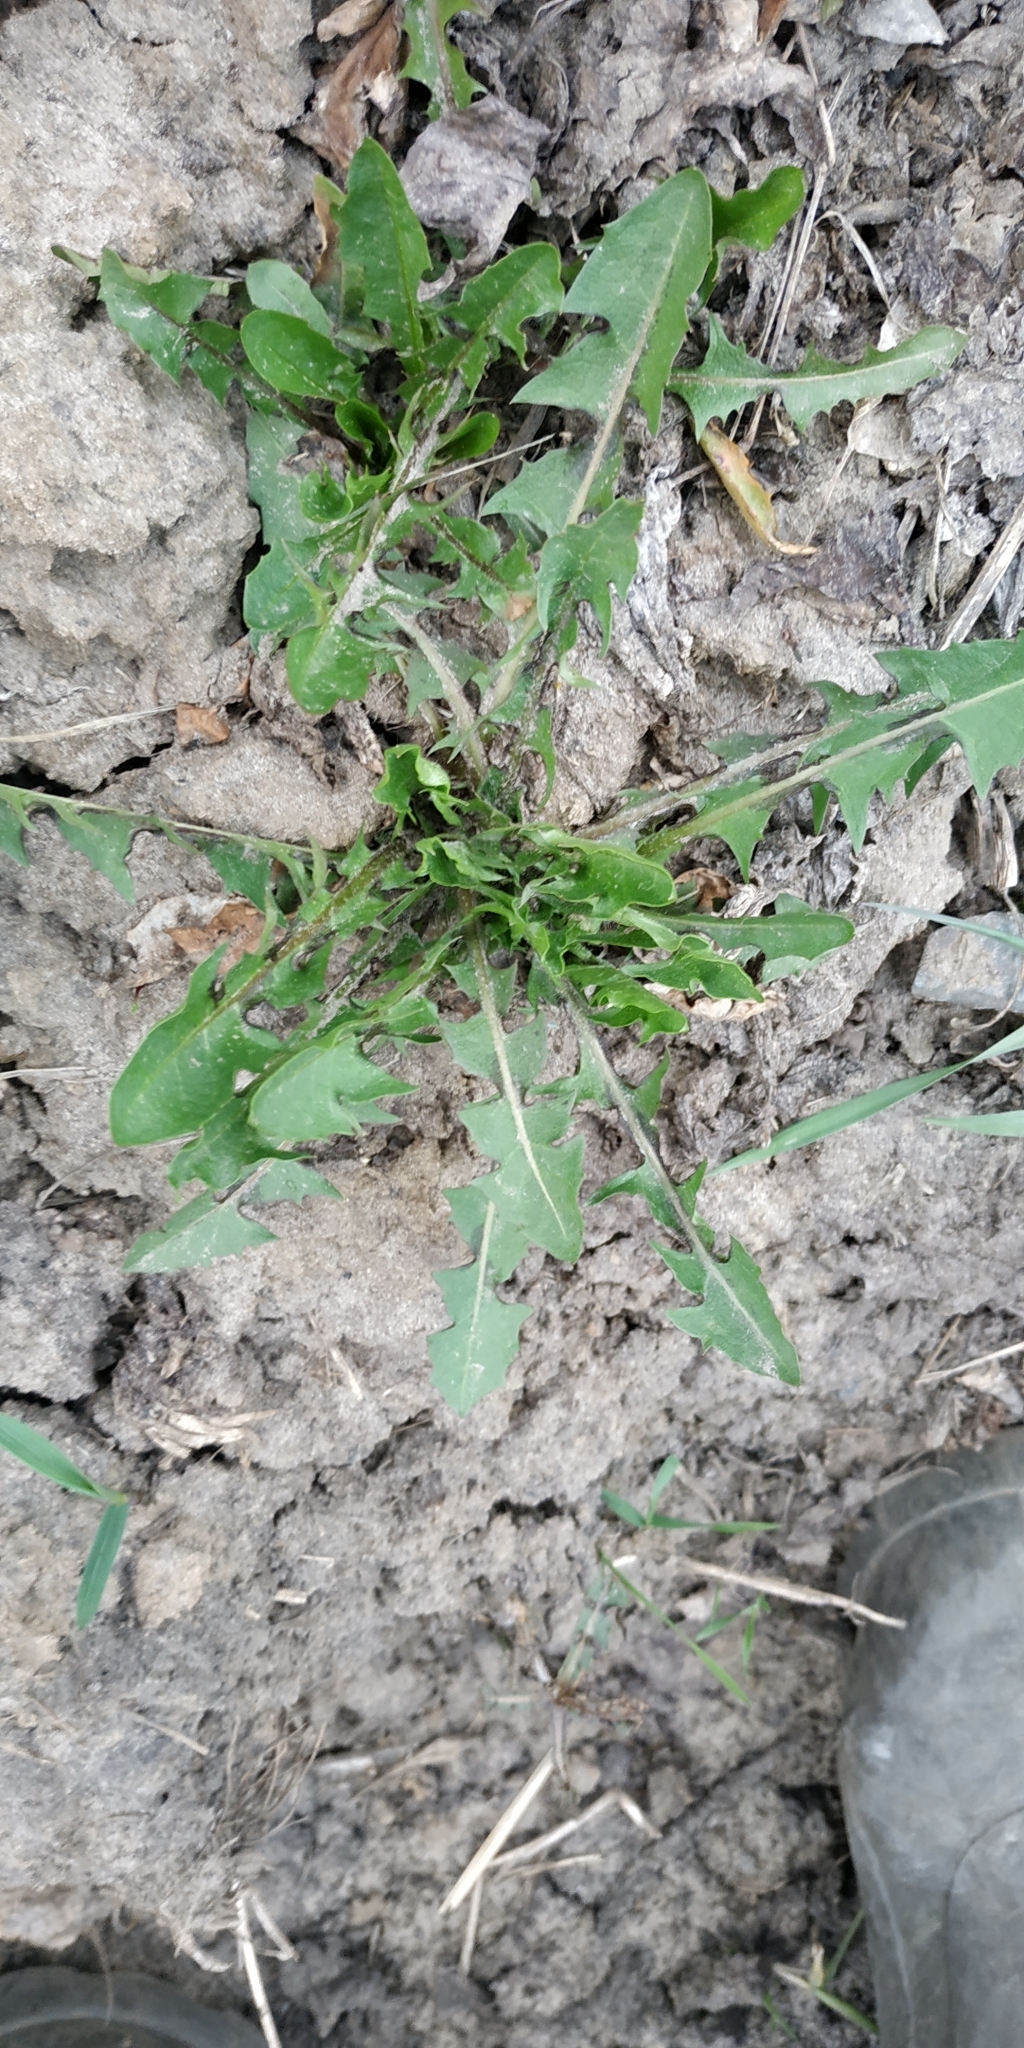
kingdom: Plantae
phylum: Tracheophyta
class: Magnoliopsida
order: Asterales
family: Asteraceae
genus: Taraxacum
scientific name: Taraxacum officinale
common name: Common dandelion
